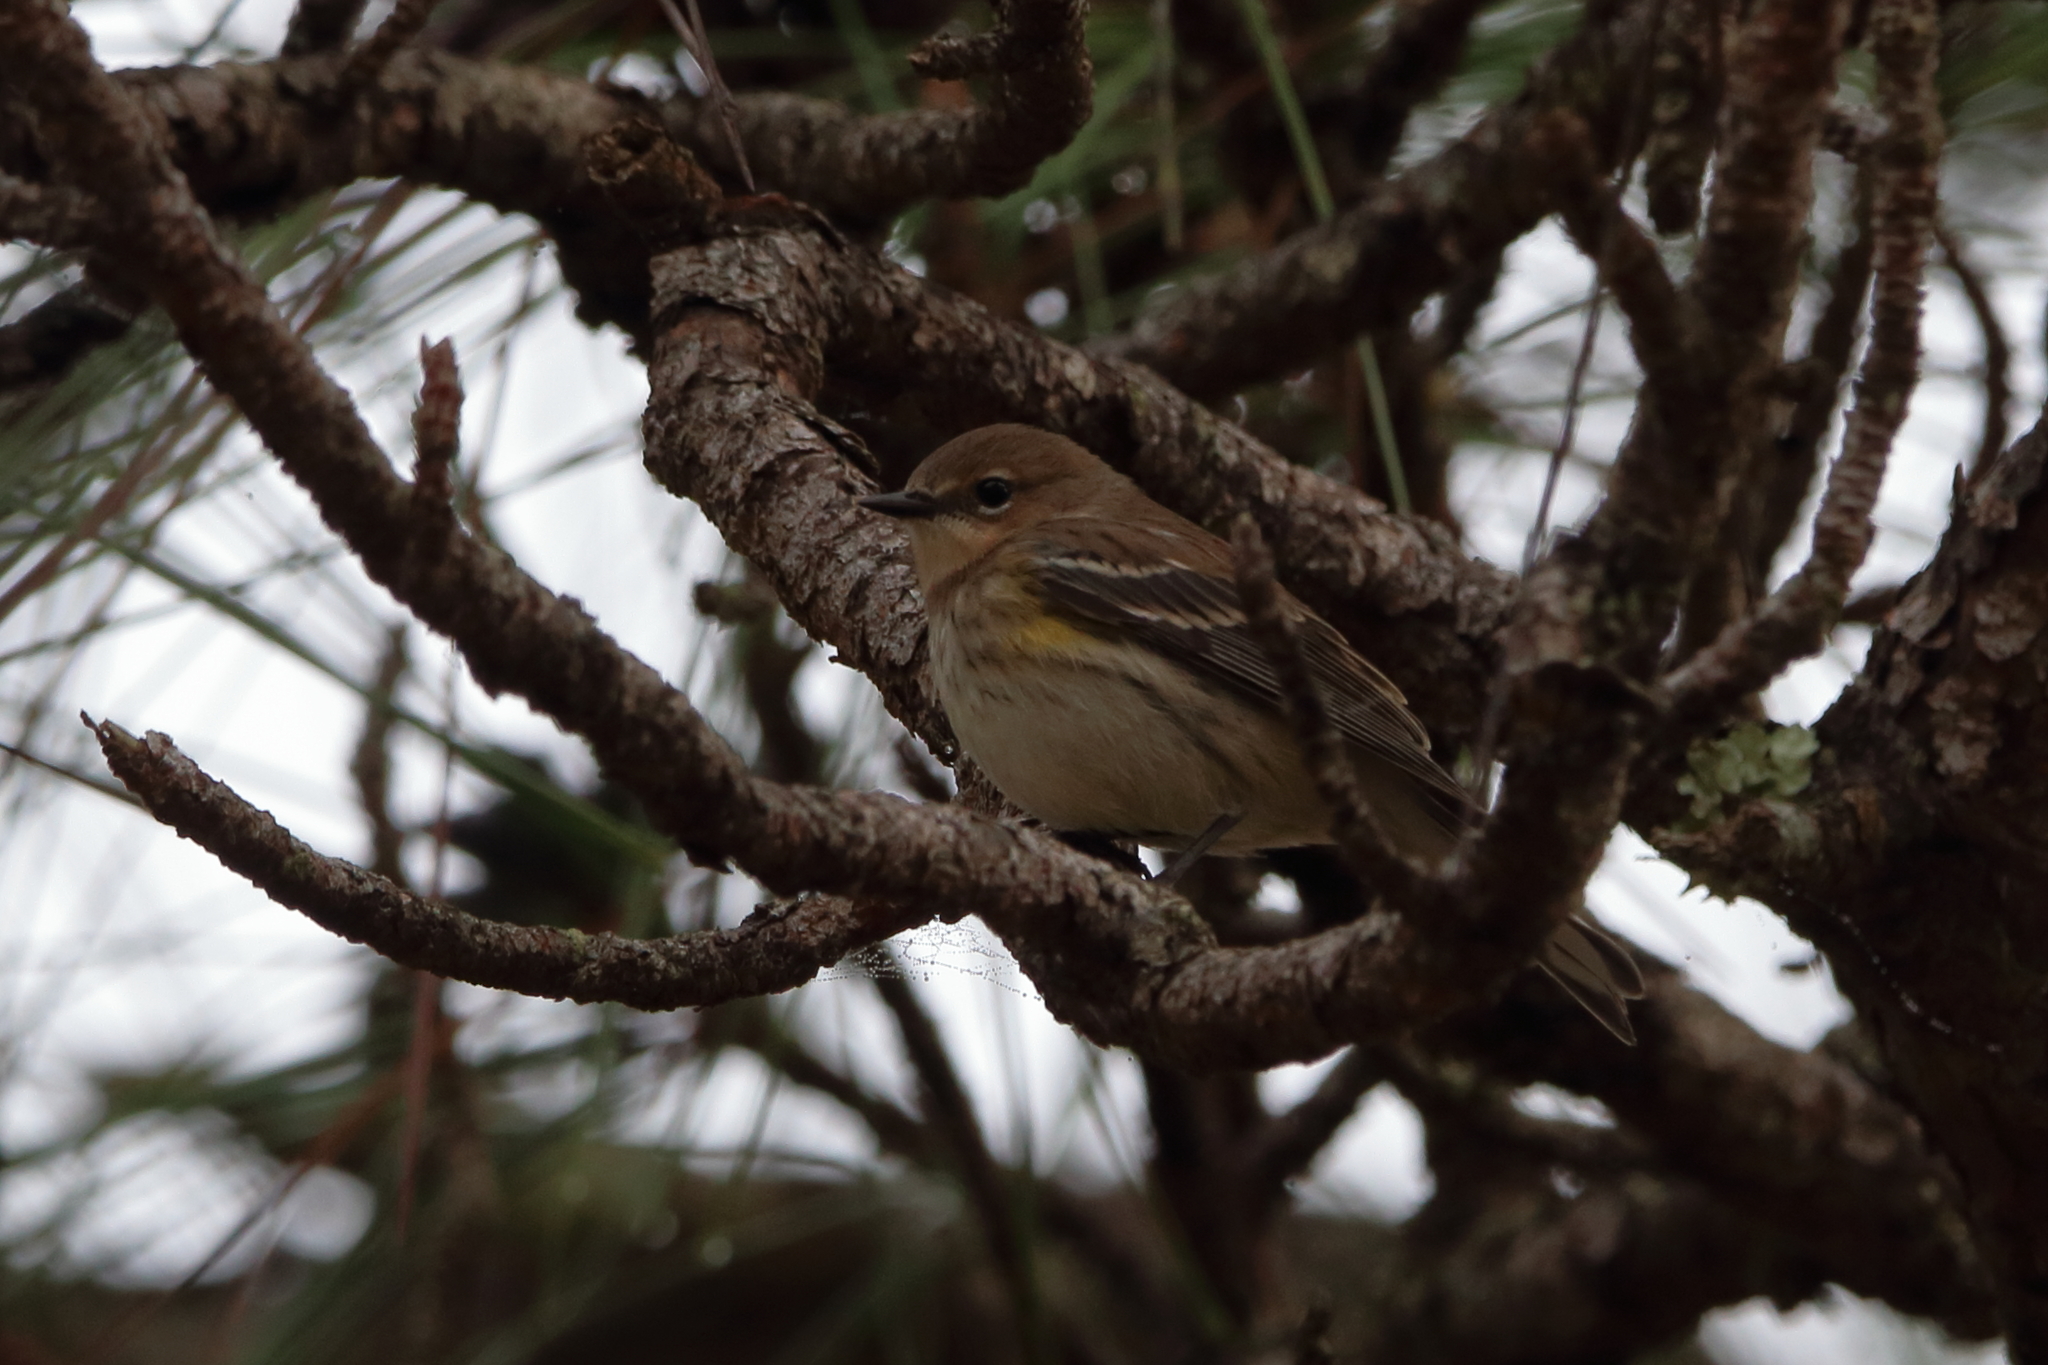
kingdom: Animalia
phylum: Chordata
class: Aves
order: Passeriformes
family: Parulidae
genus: Setophaga
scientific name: Setophaga coronata
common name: Myrtle warbler
